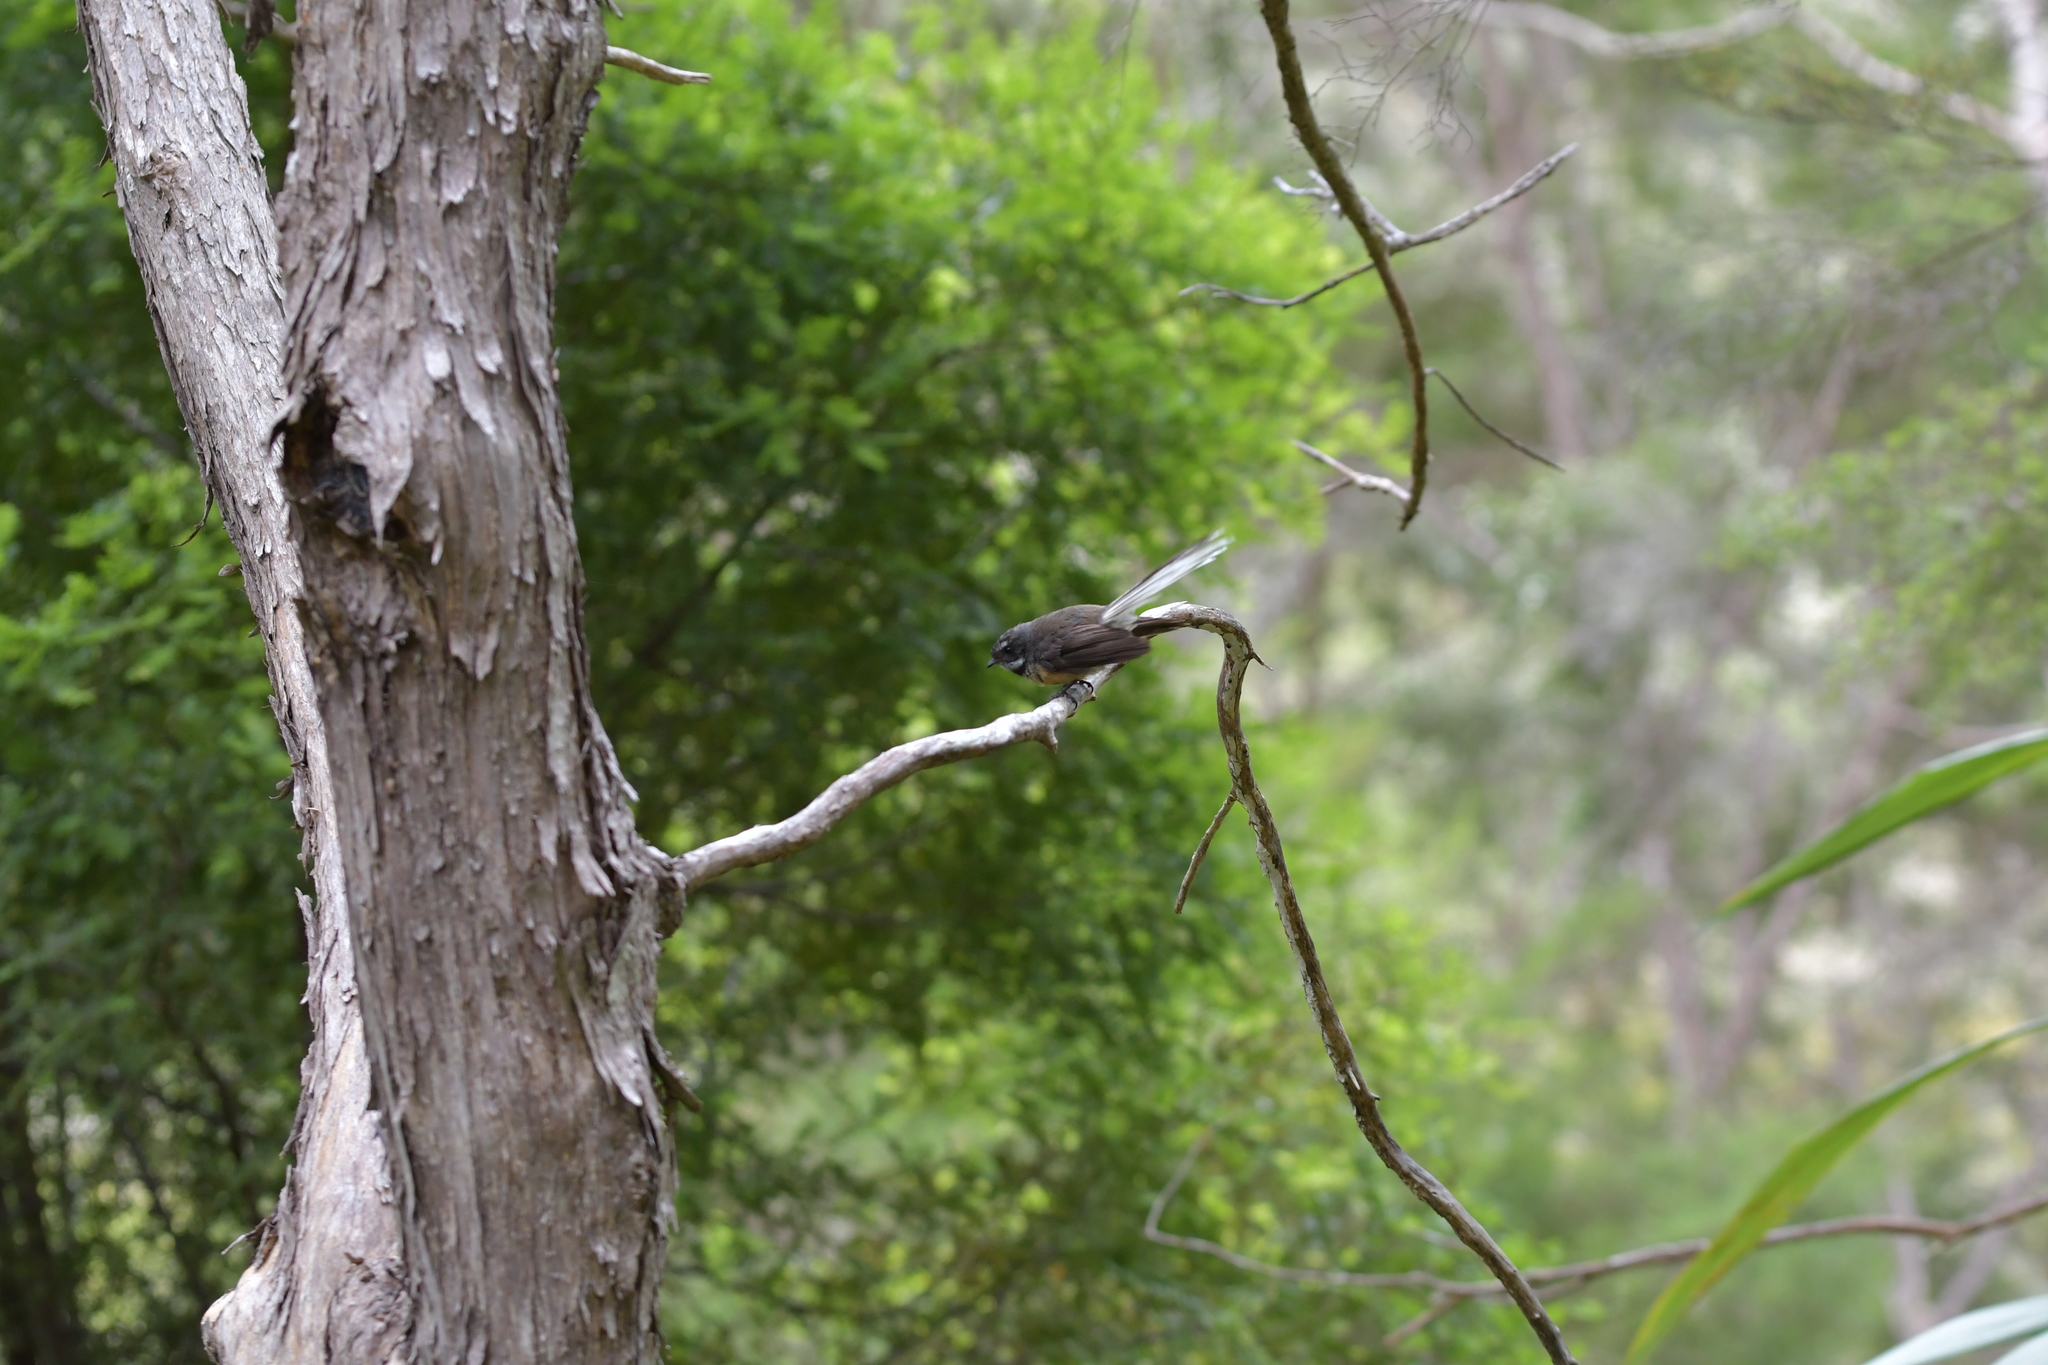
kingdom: Animalia
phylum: Chordata
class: Aves
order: Passeriformes
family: Rhipiduridae
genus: Rhipidura
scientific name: Rhipidura fuliginosa
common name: New zealand fantail
